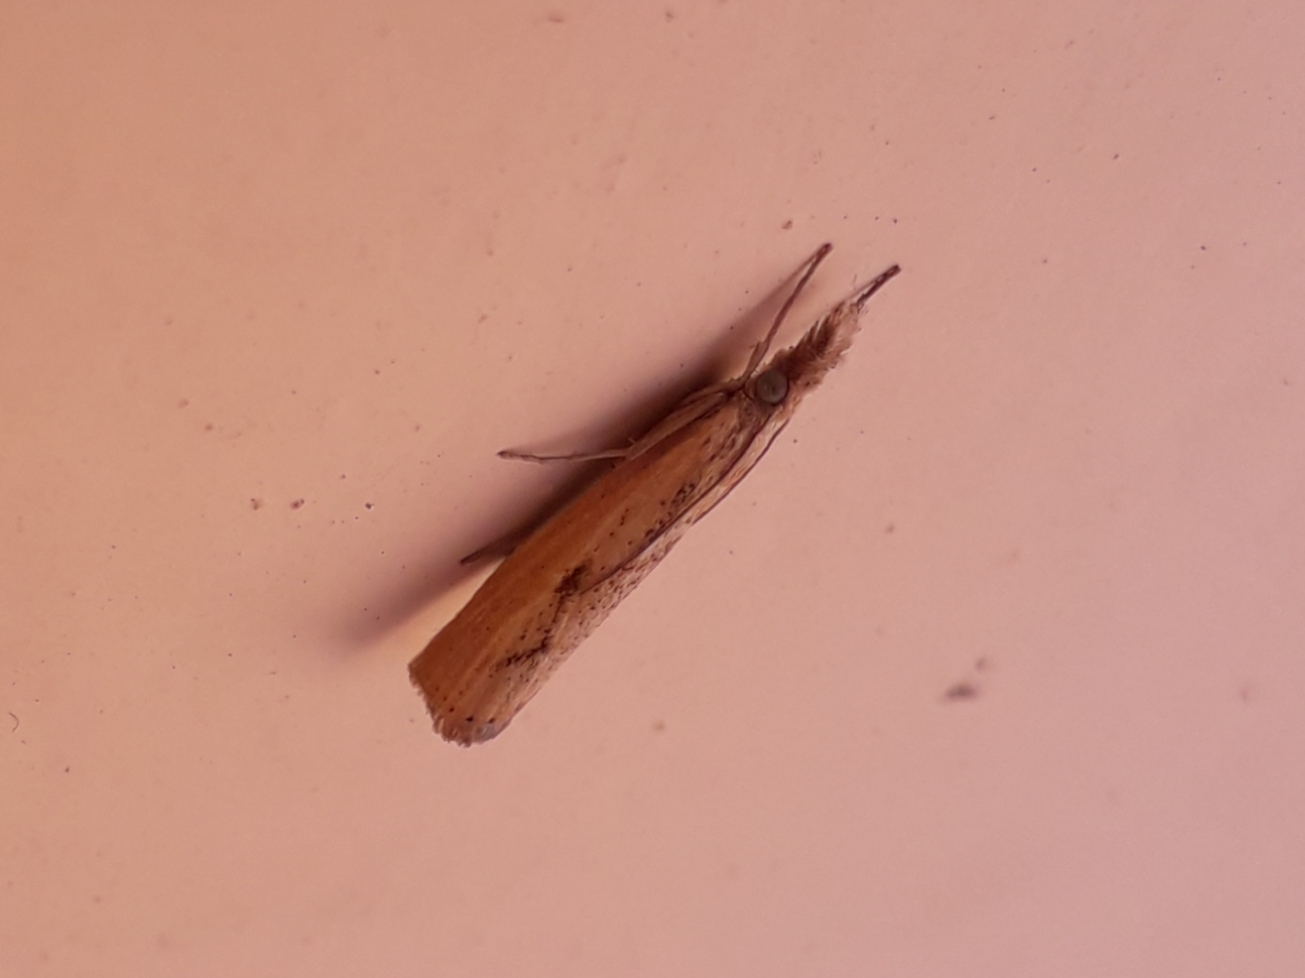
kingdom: Animalia
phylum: Arthropoda
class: Insecta
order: Lepidoptera
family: Crambidae
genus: Agriphila
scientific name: Agriphila inquinatella
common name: Barred grass-veneer
